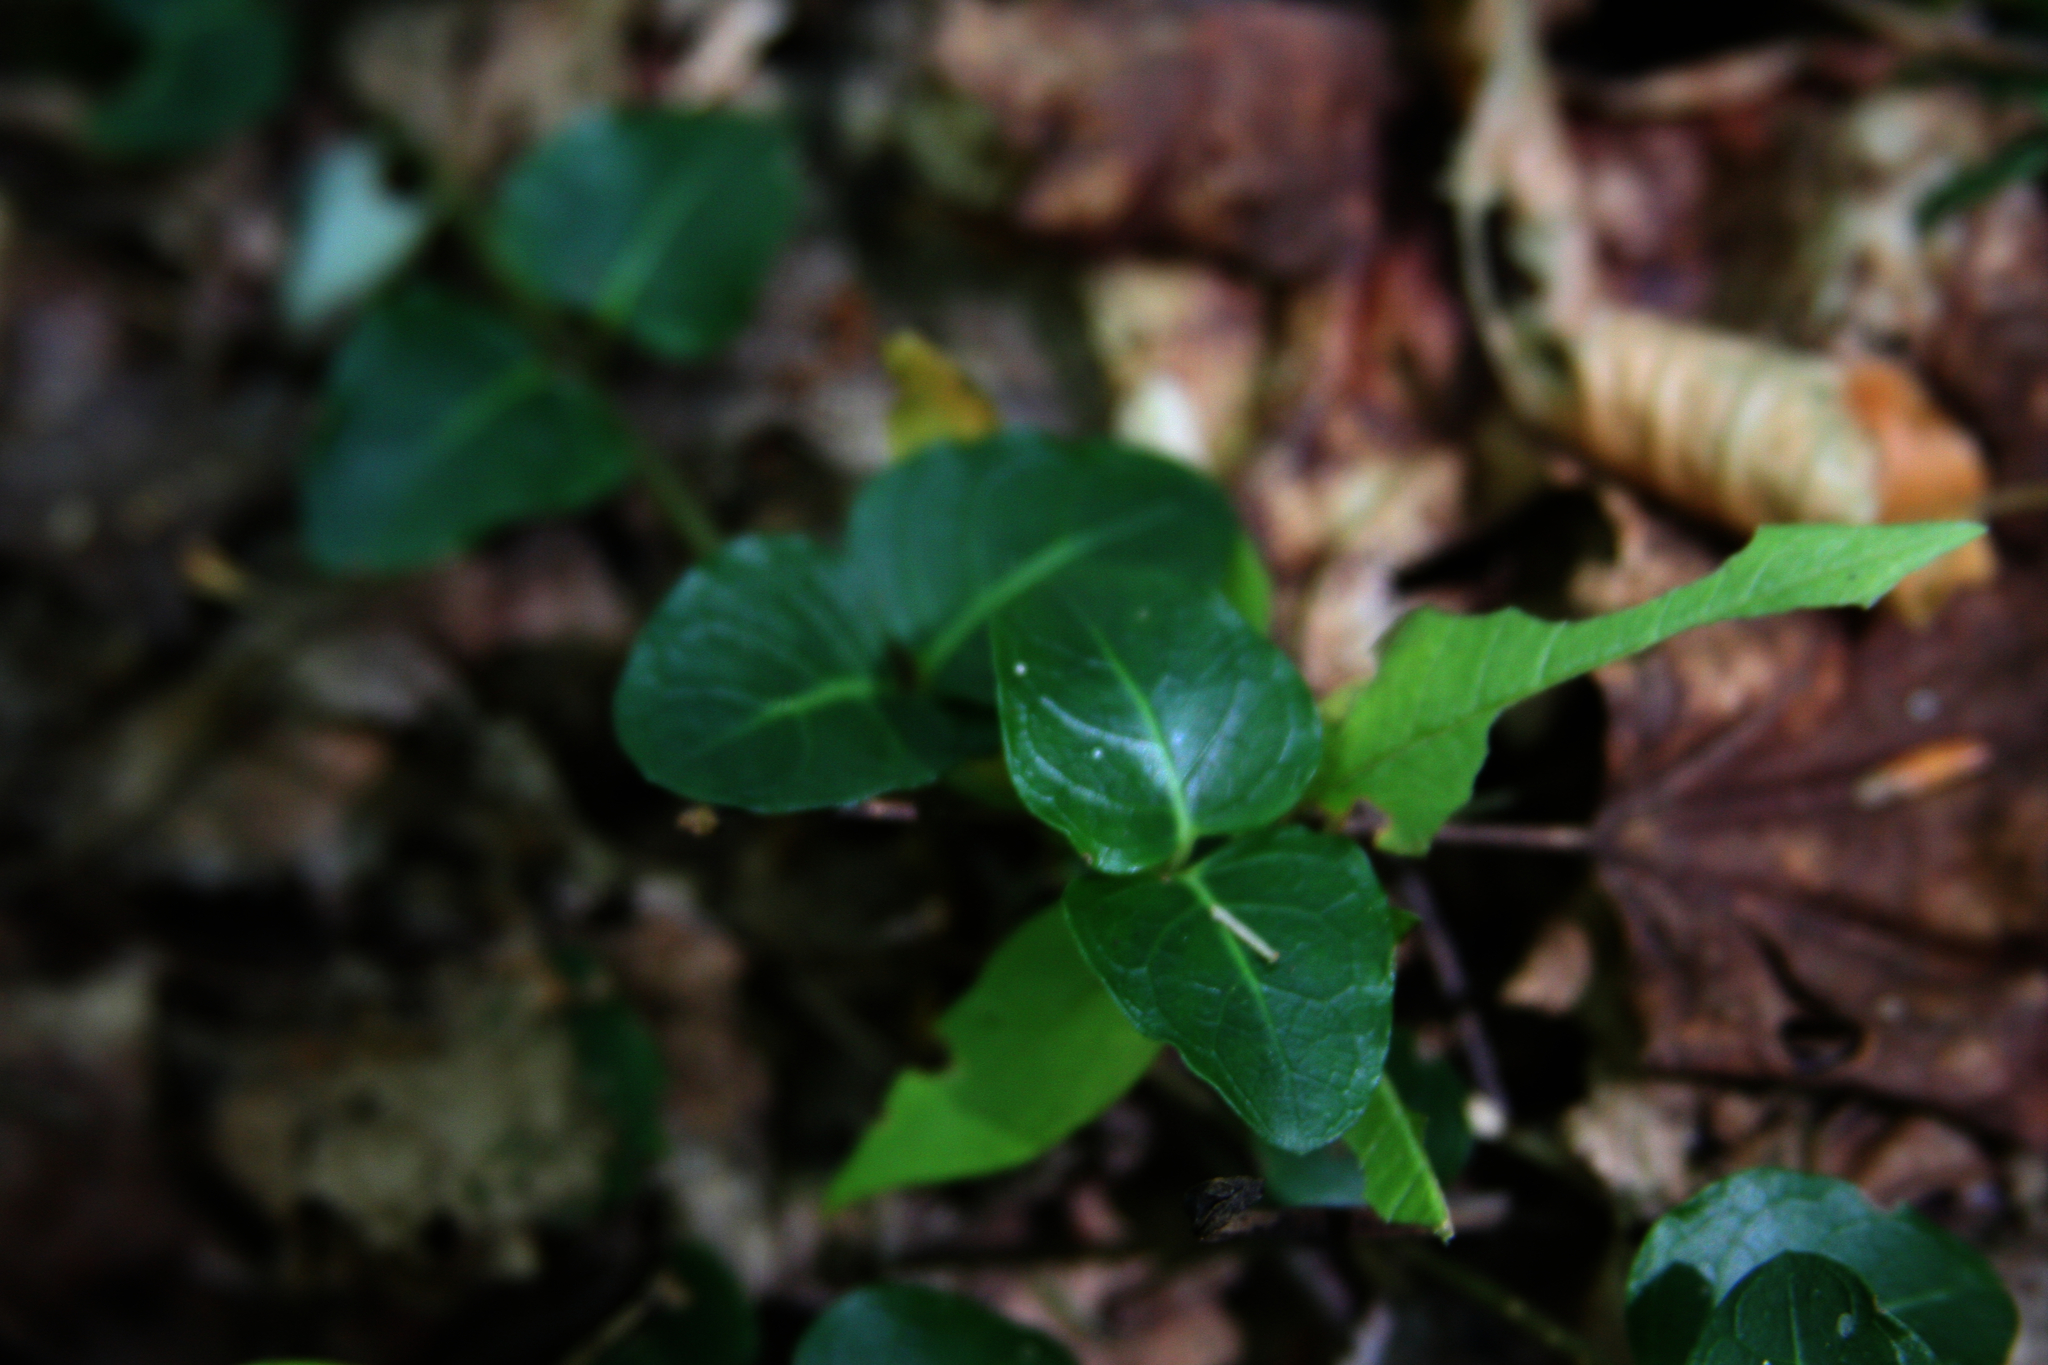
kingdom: Plantae
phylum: Tracheophyta
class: Magnoliopsida
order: Gentianales
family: Rubiaceae
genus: Mitchella
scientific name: Mitchella repens
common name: Partridge-berry
